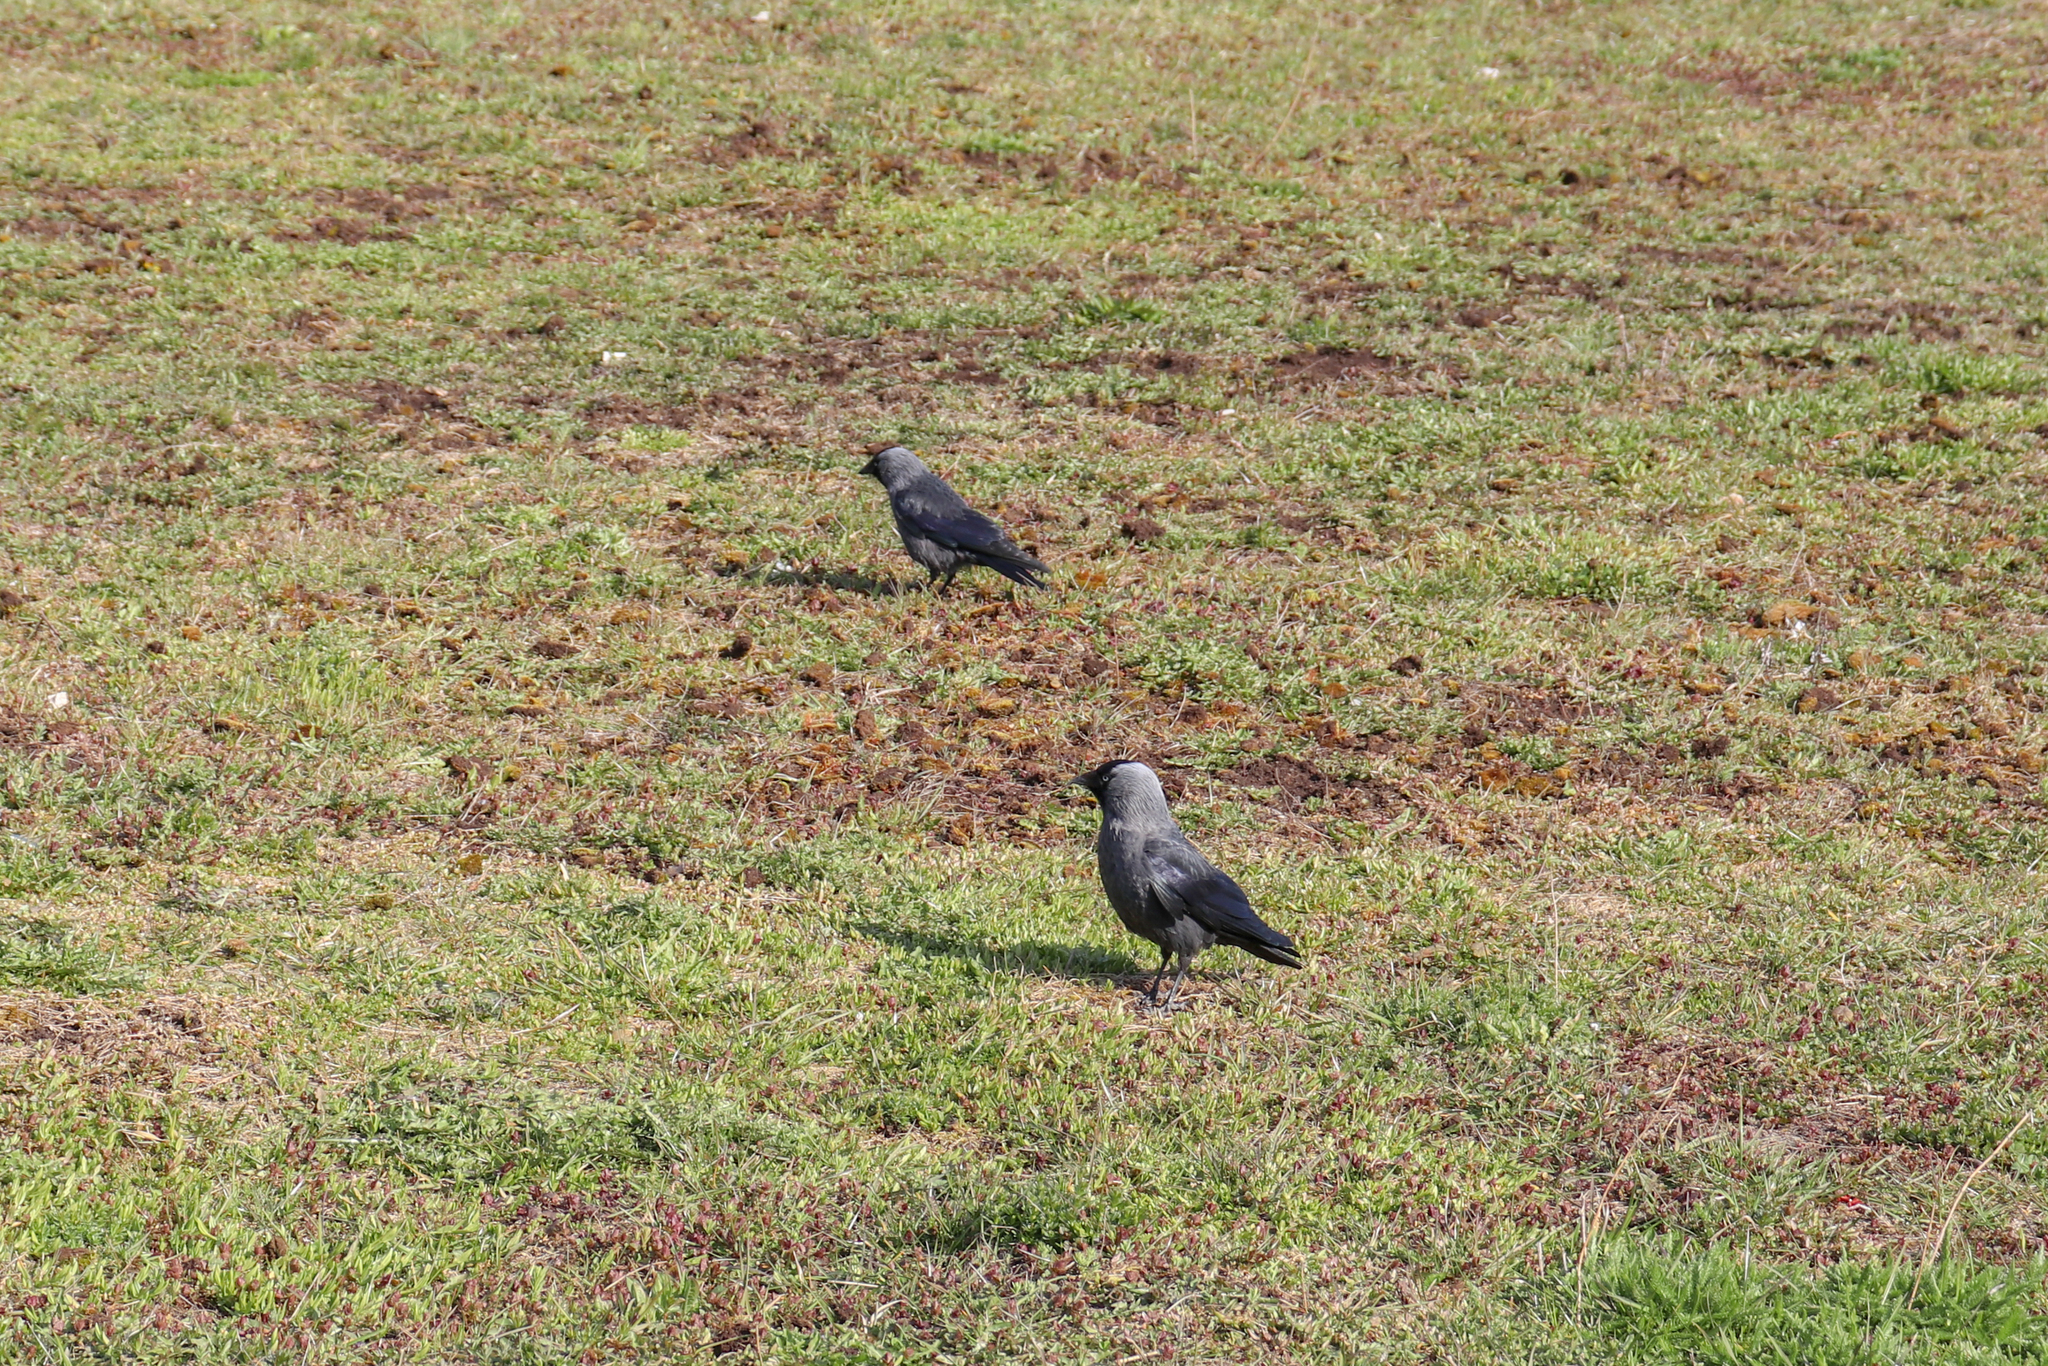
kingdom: Animalia
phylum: Chordata
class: Aves
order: Passeriformes
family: Corvidae
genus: Coloeus
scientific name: Coloeus monedula
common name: Western jackdaw
